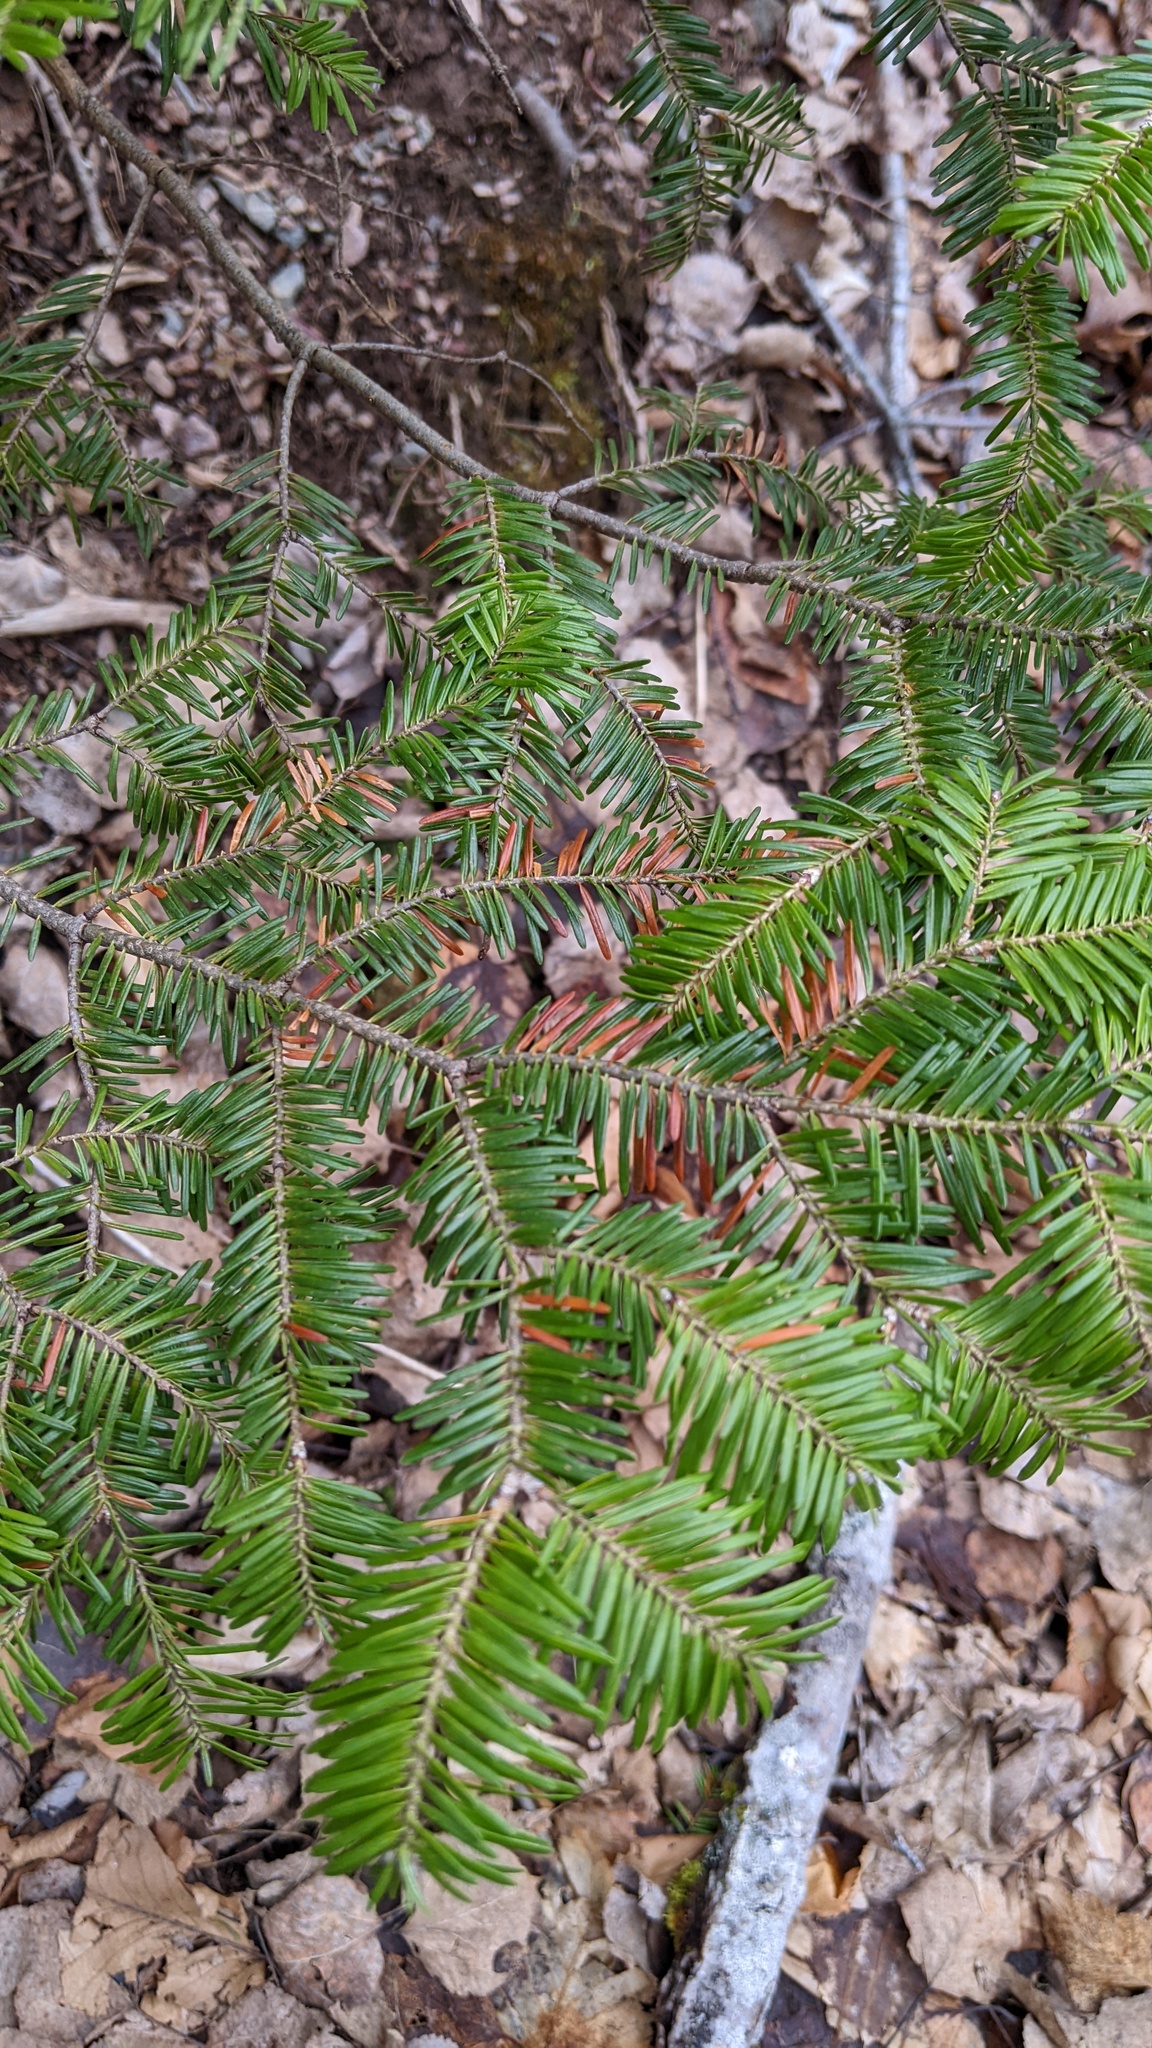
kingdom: Plantae
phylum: Tracheophyta
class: Pinopsida
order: Pinales
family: Pinaceae
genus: Abies
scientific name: Abies balsamea
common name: Balsam fir
